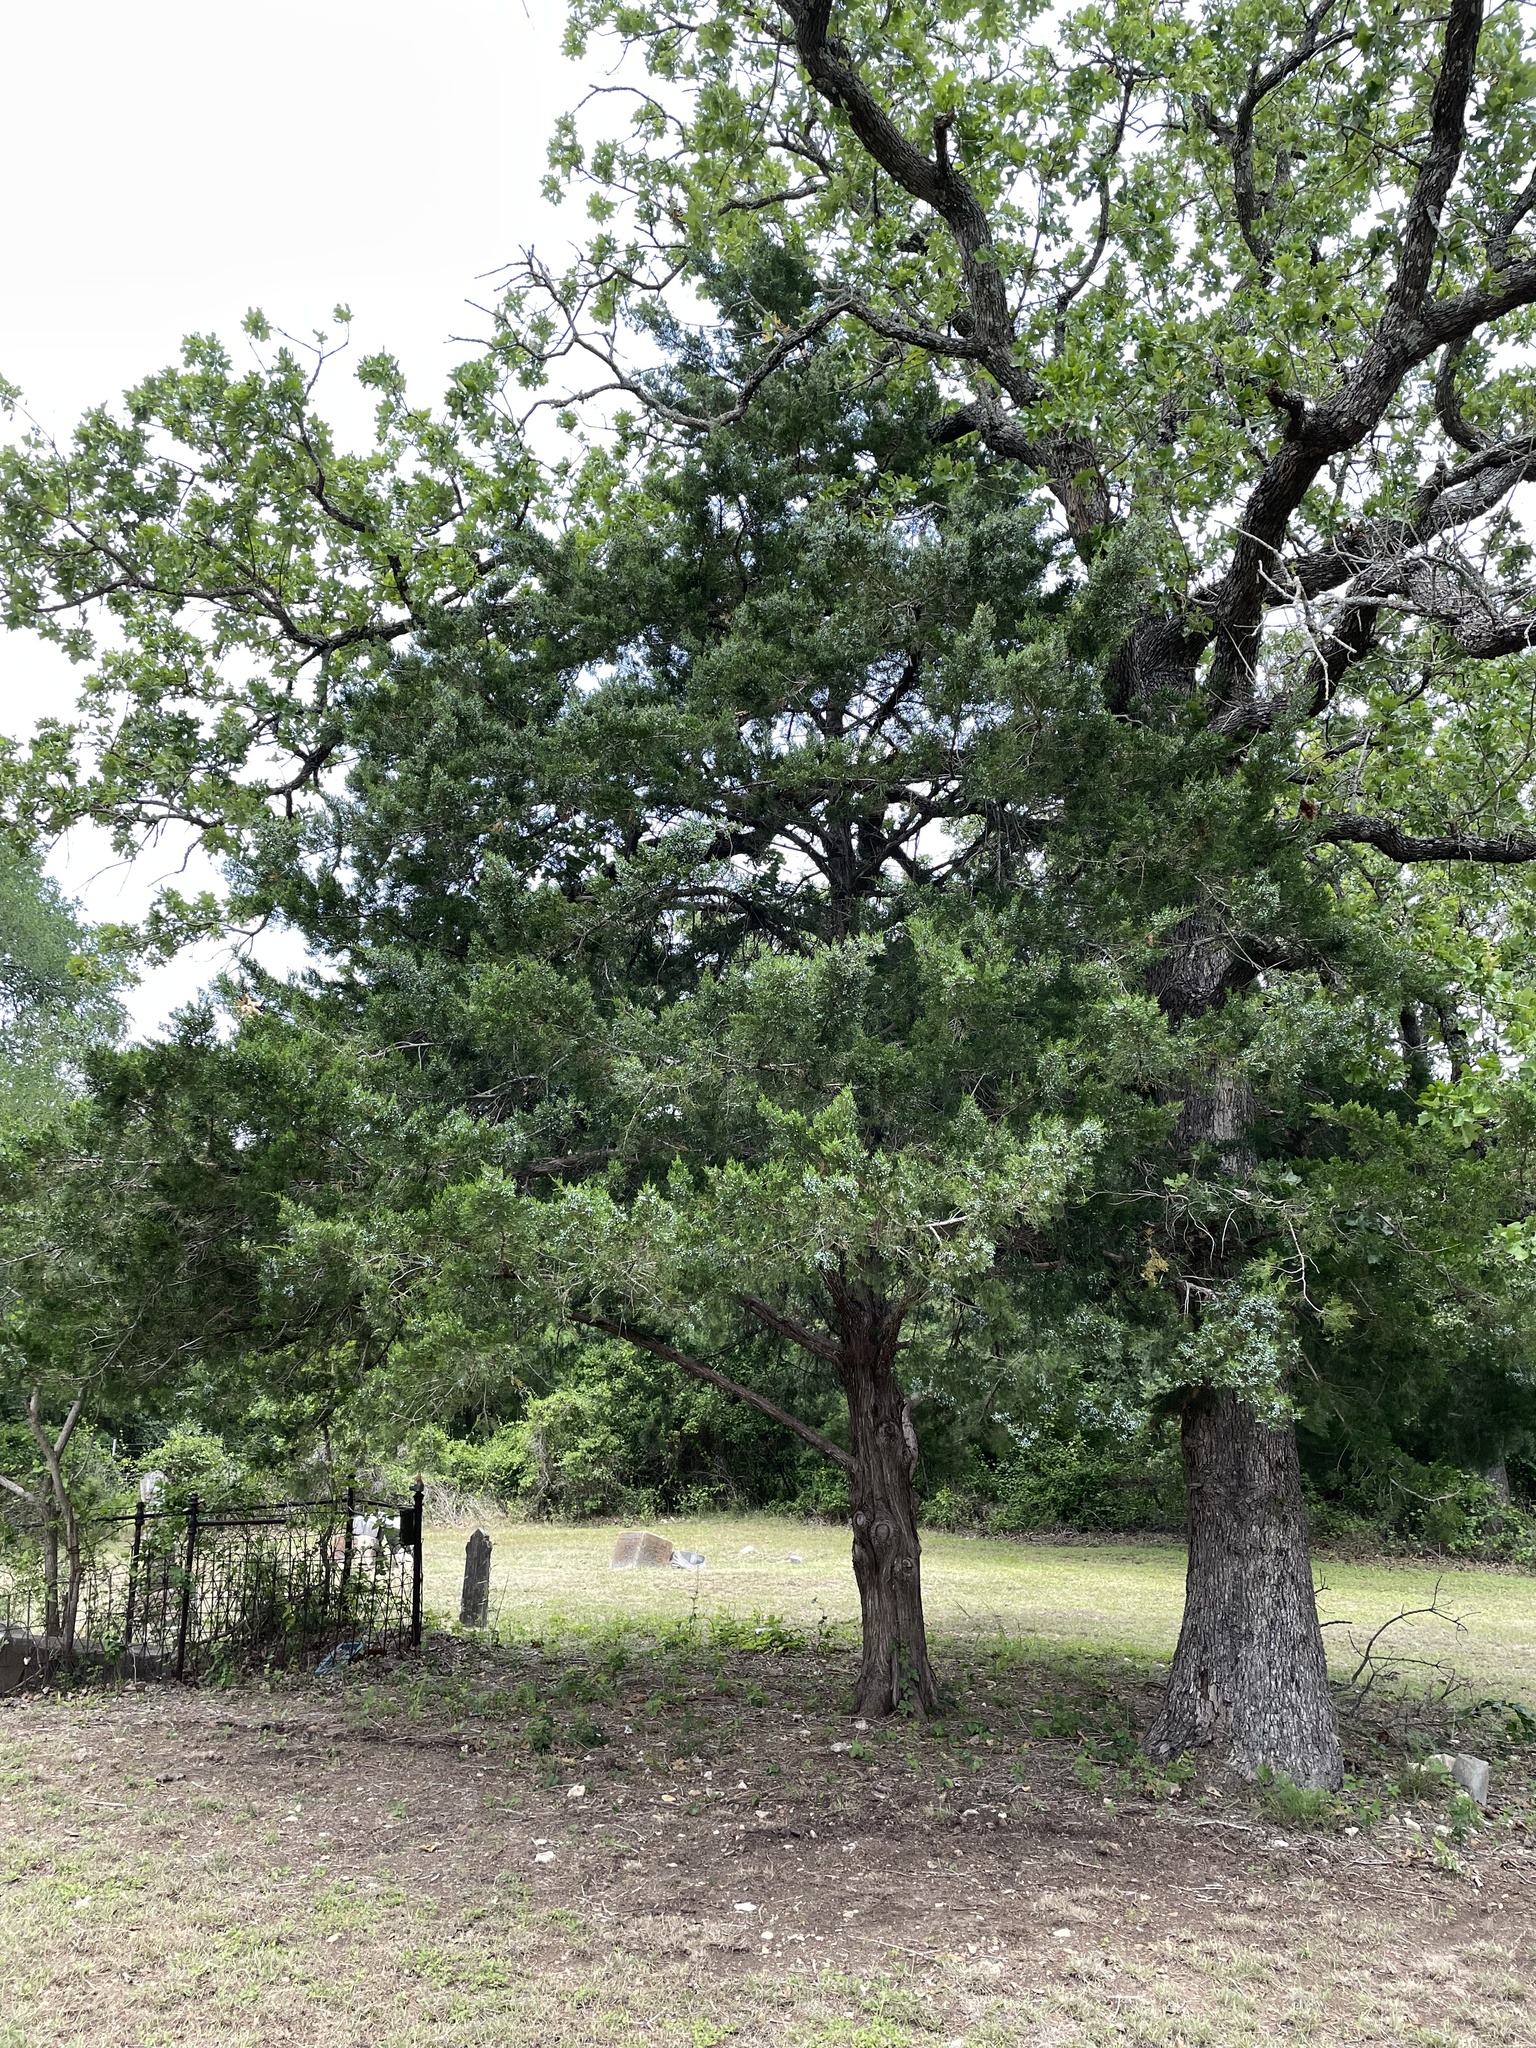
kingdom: Plantae
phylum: Tracheophyta
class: Pinopsida
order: Pinales
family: Cupressaceae
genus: Juniperus
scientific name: Juniperus virginiana
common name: Red juniper
